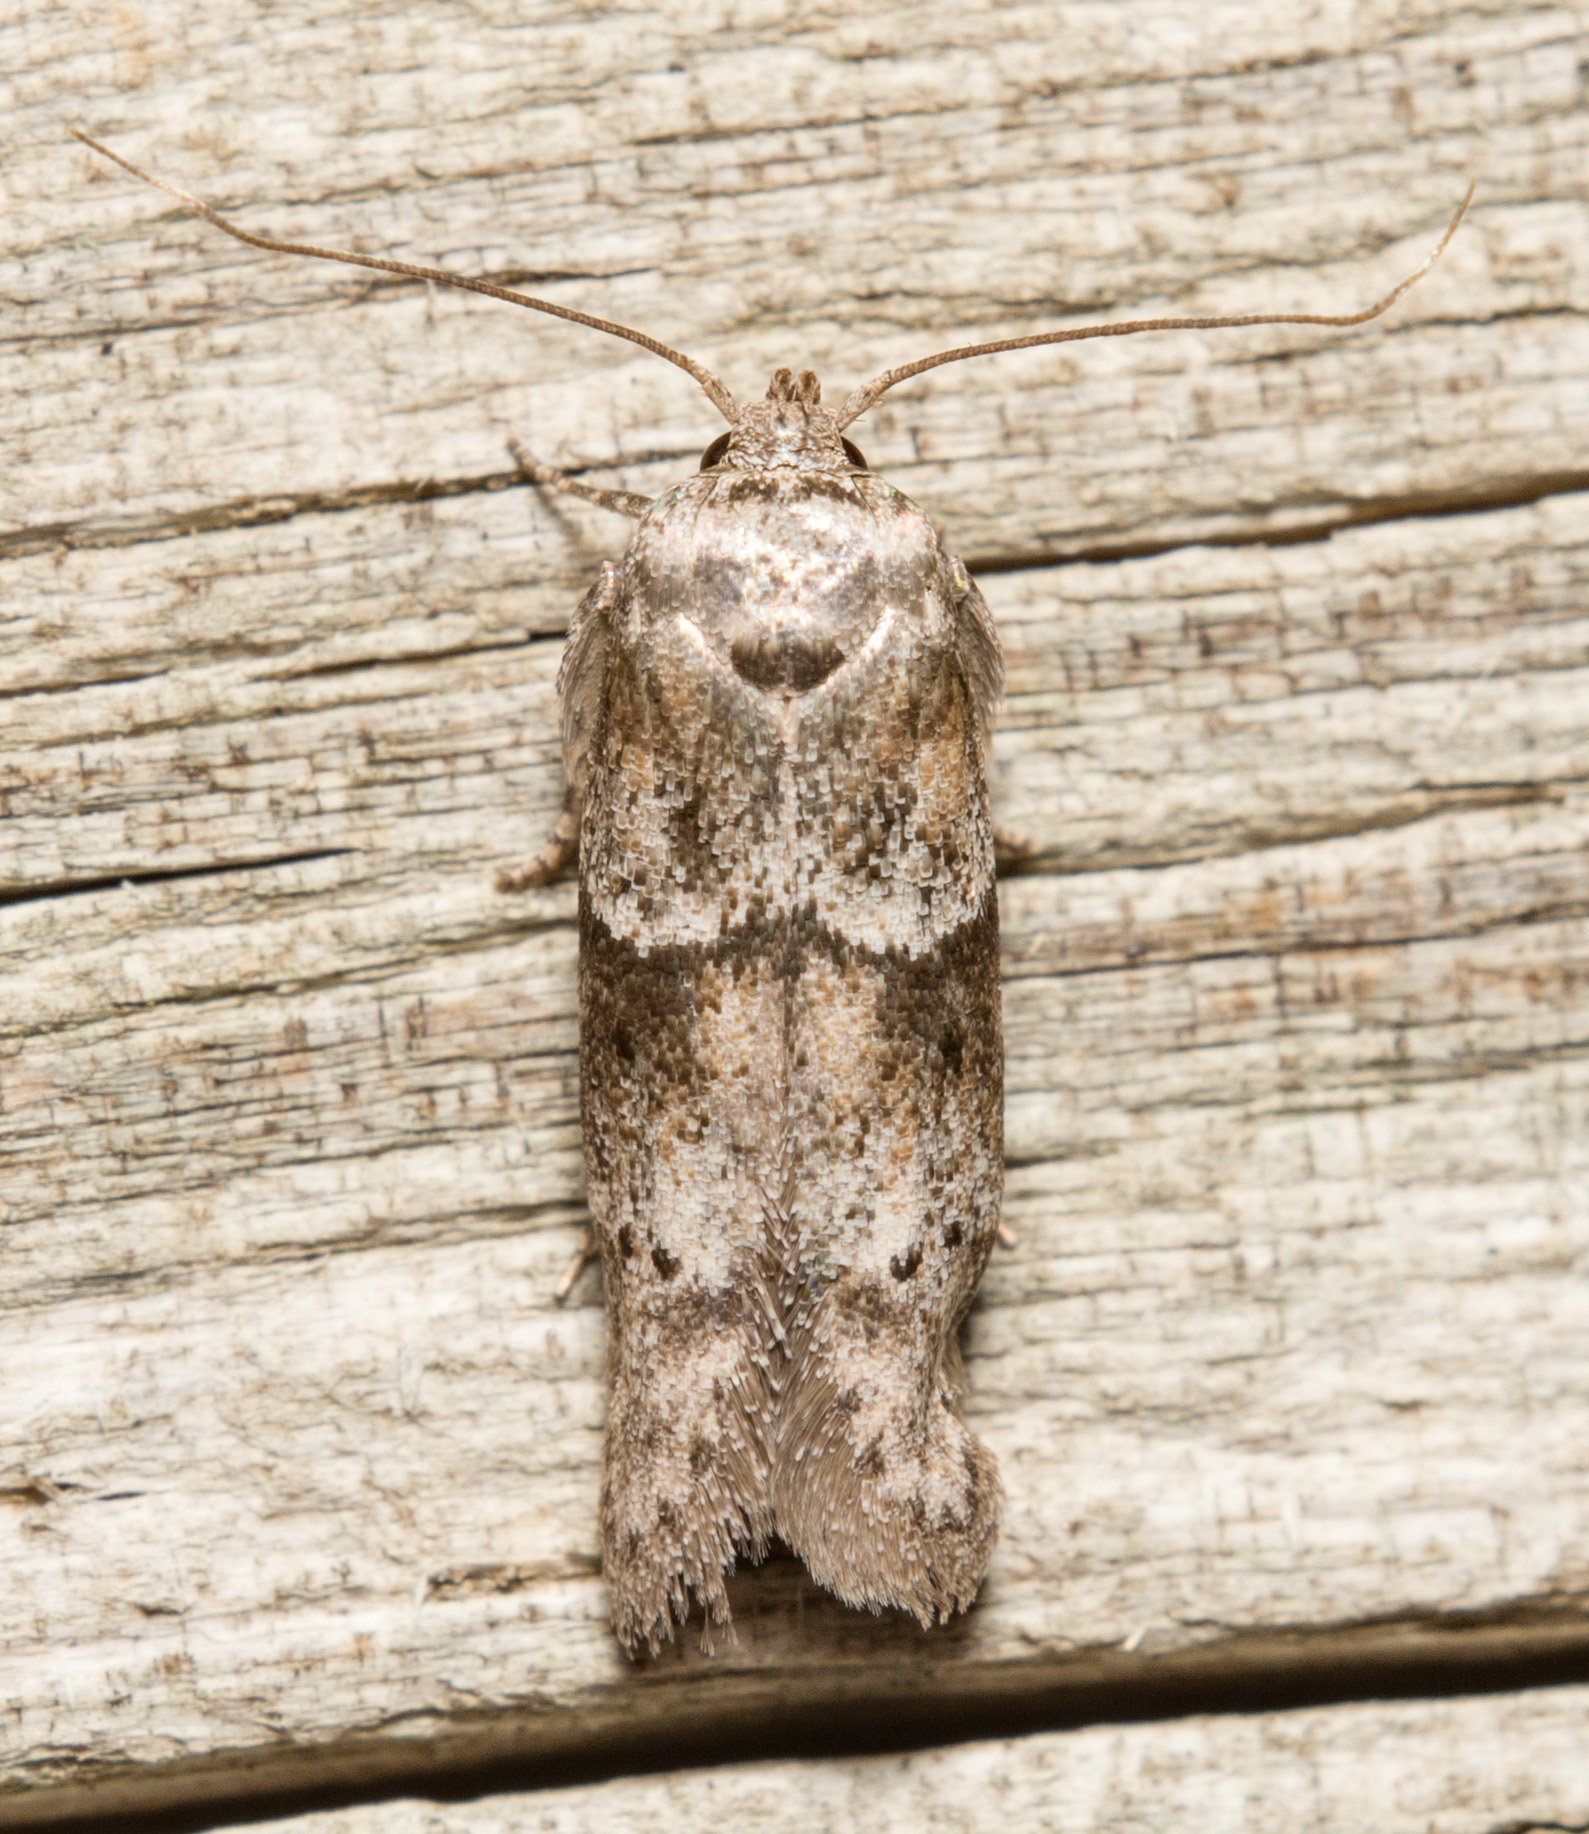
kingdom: Animalia
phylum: Arthropoda
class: Insecta
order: Lepidoptera
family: Blastobasidae
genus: Blastobasis
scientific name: Blastobasis glandulella
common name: Acorn moth
